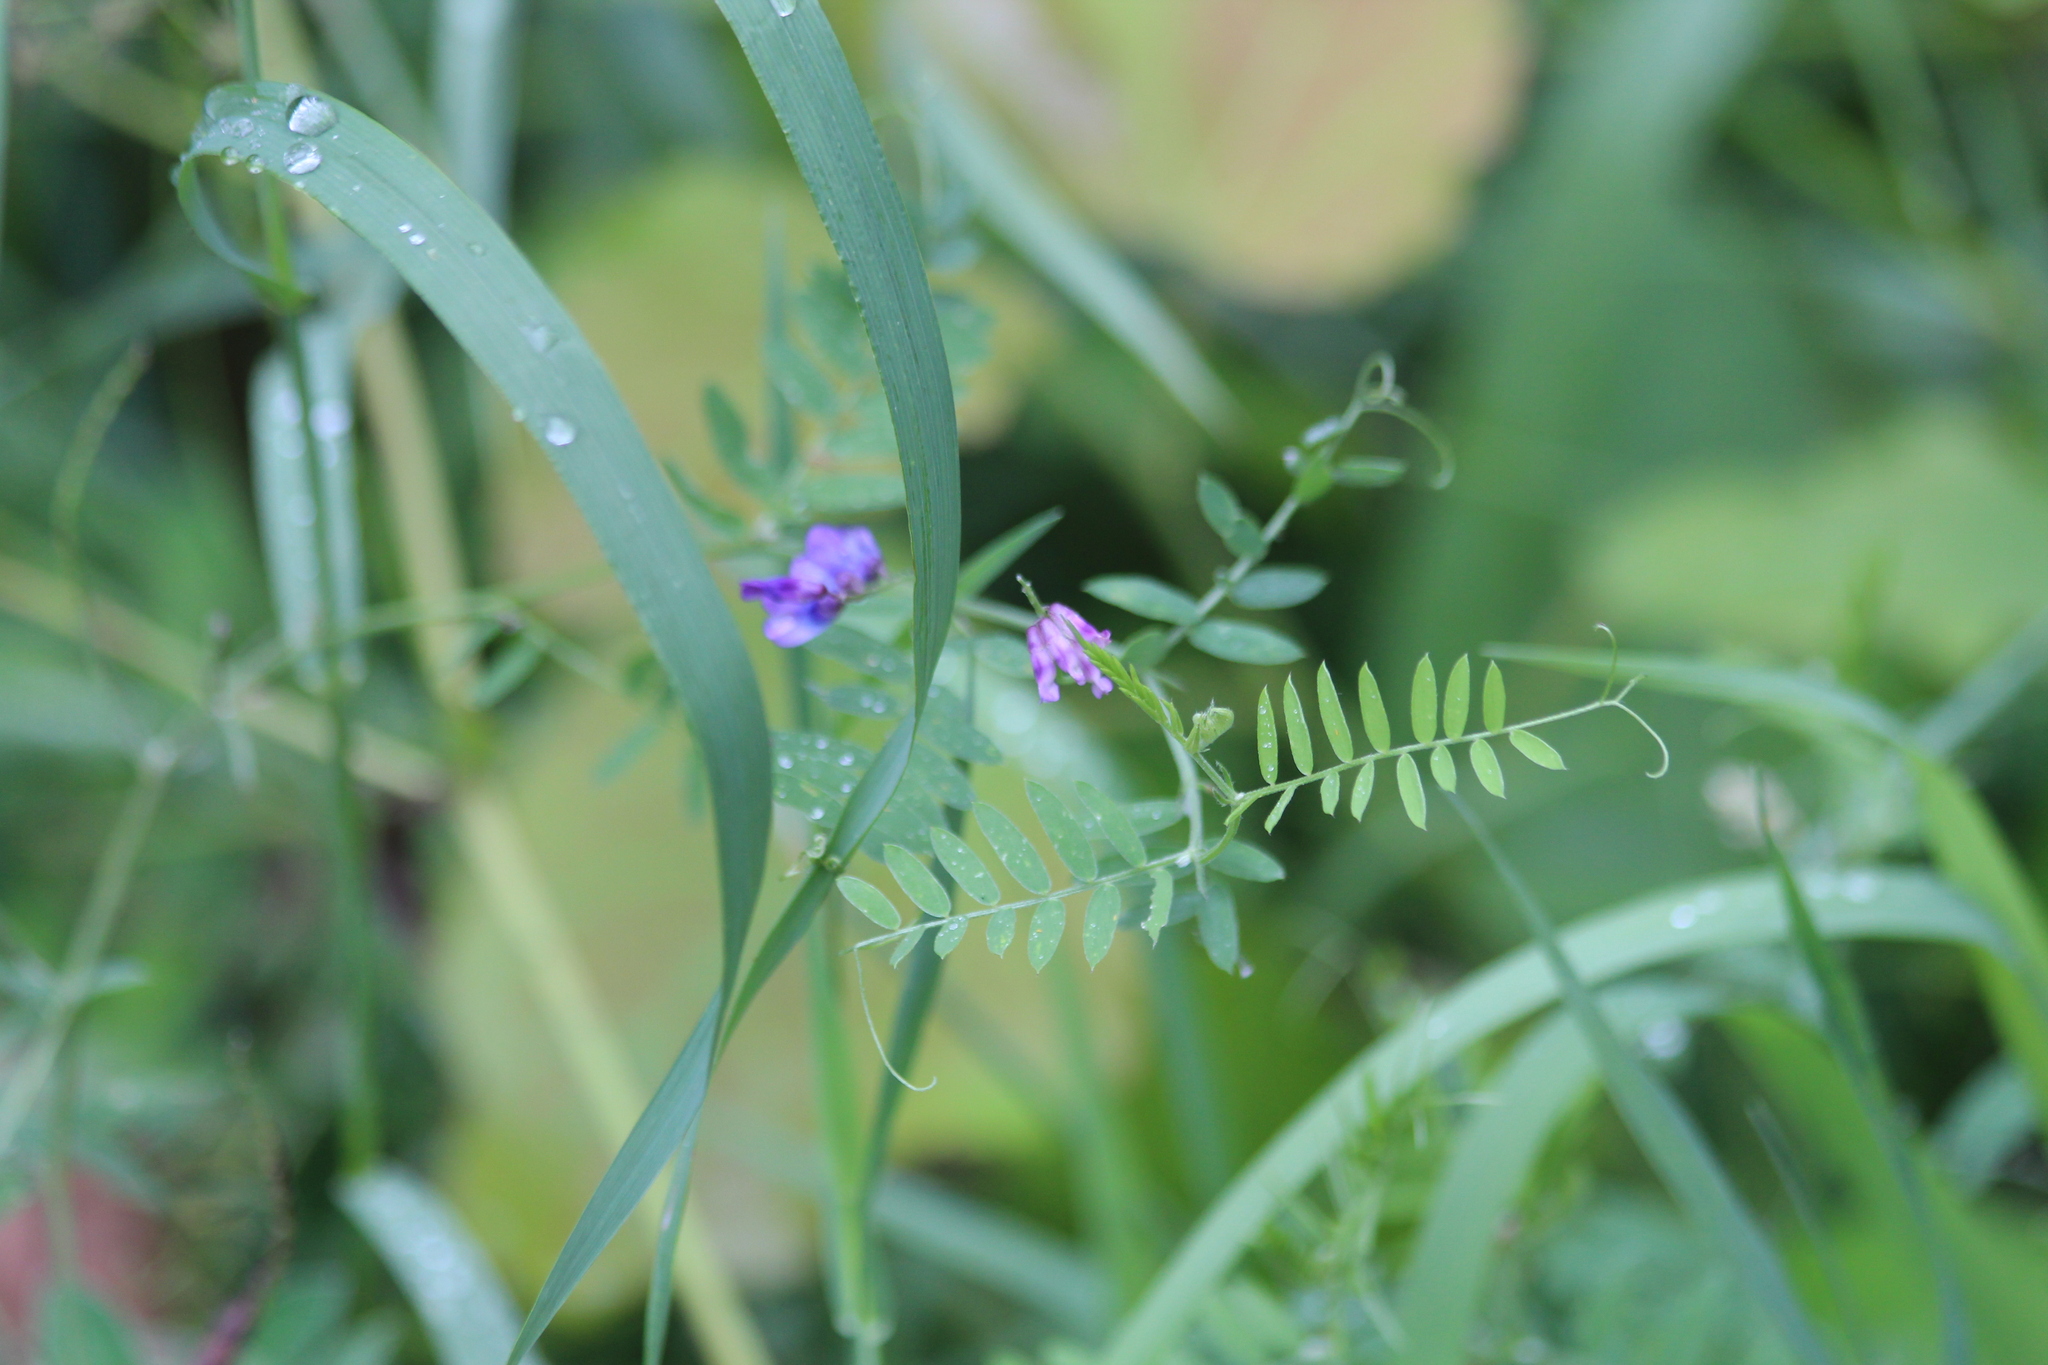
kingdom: Plantae
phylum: Tracheophyta
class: Magnoliopsida
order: Fabales
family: Fabaceae
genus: Vicia
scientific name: Vicia cracca
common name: Bird vetch
